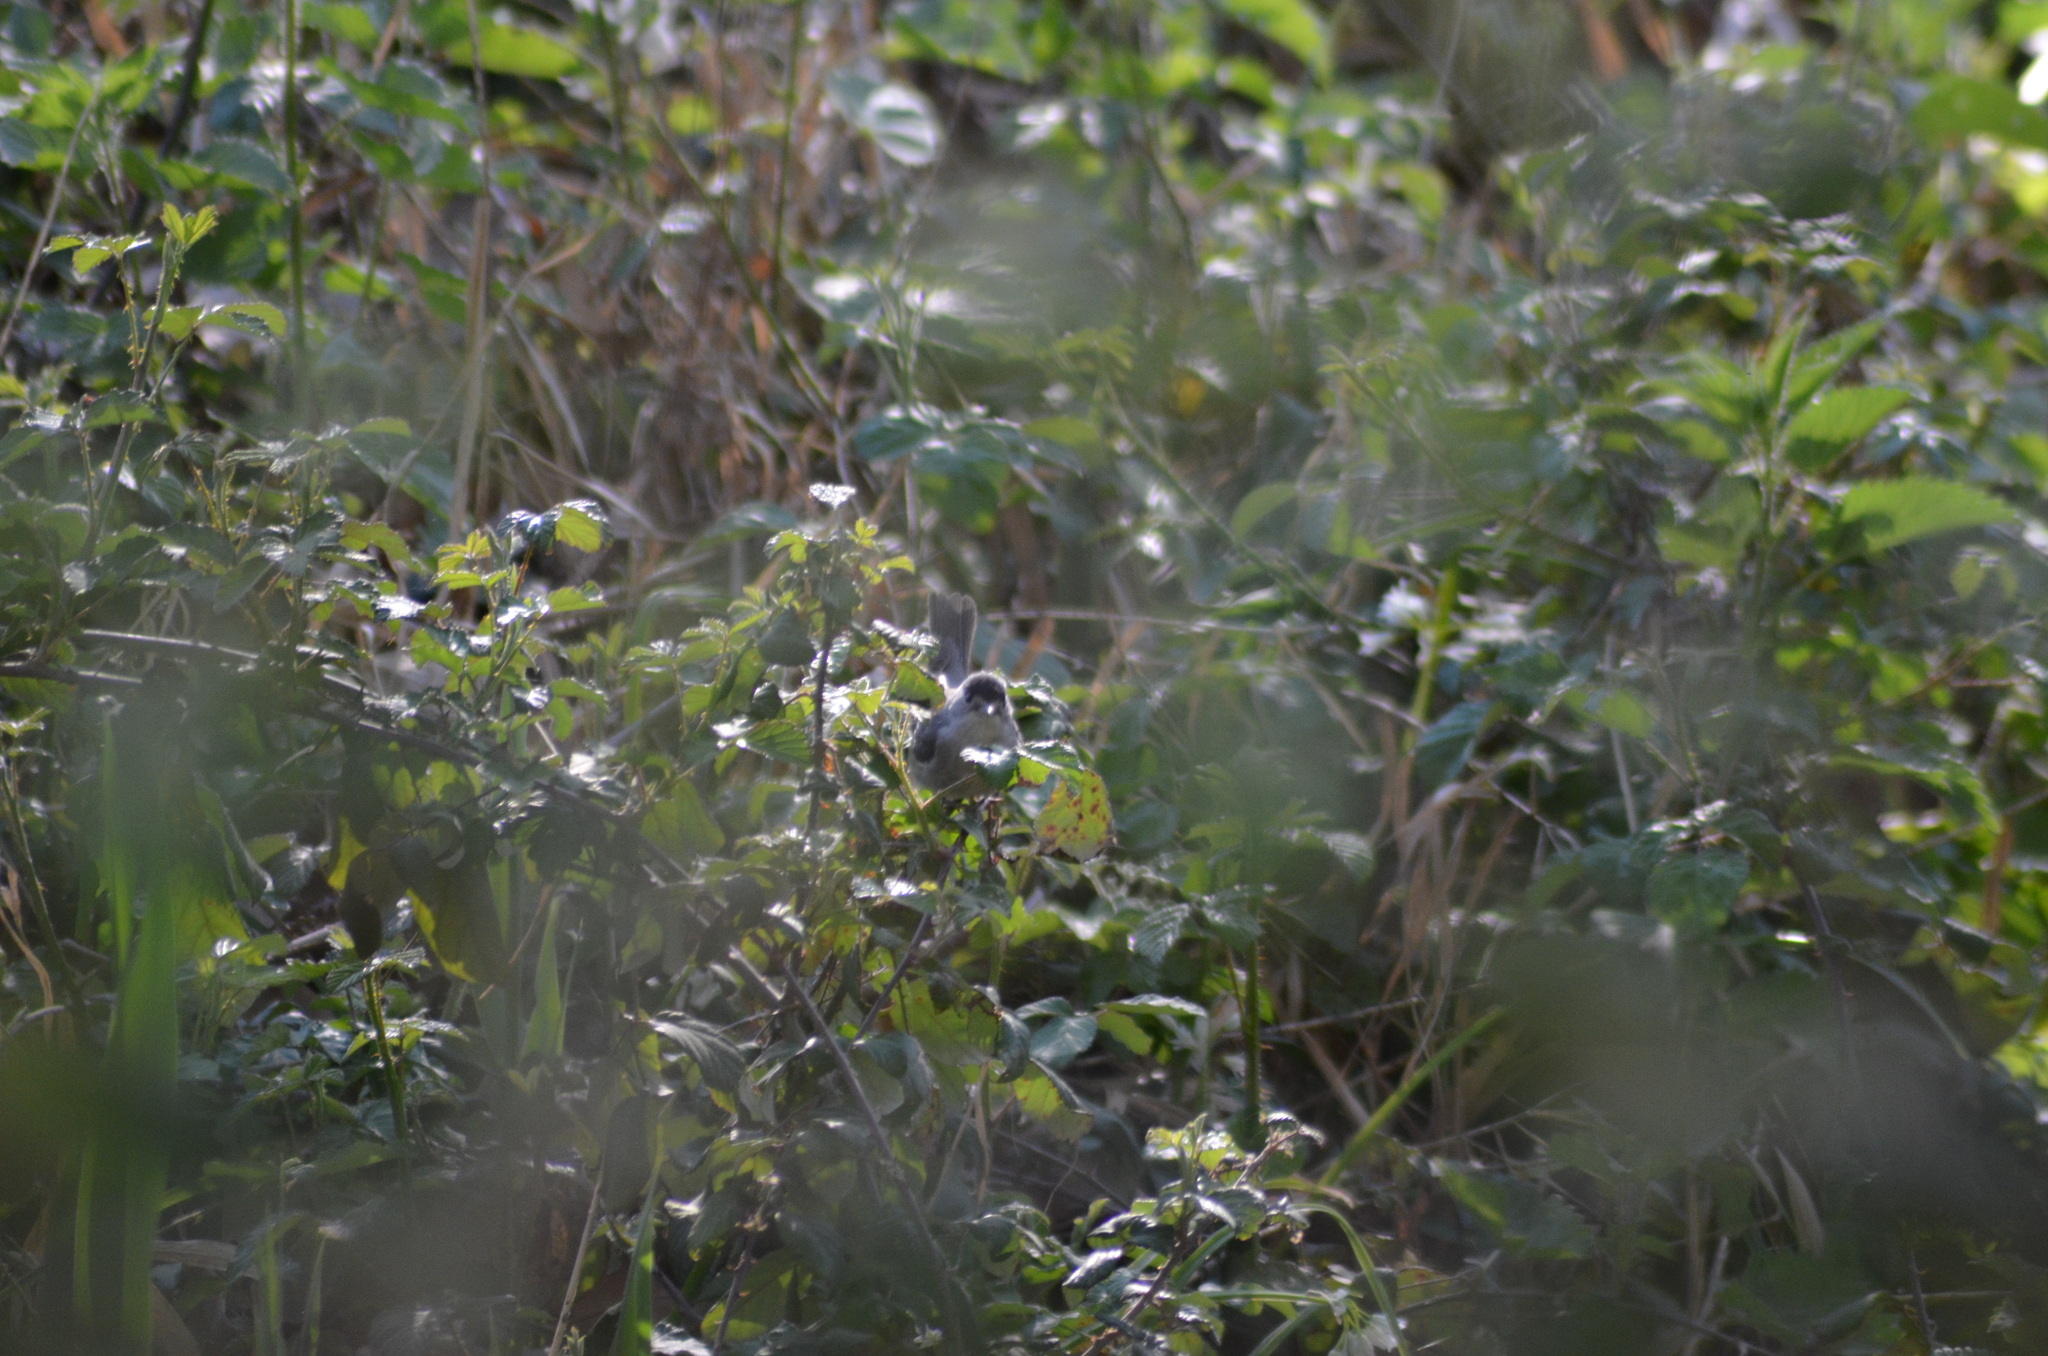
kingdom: Animalia
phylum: Chordata
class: Aves
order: Passeriformes
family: Sylviidae
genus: Sylvia
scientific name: Sylvia atricapilla
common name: Eurasian blackcap
